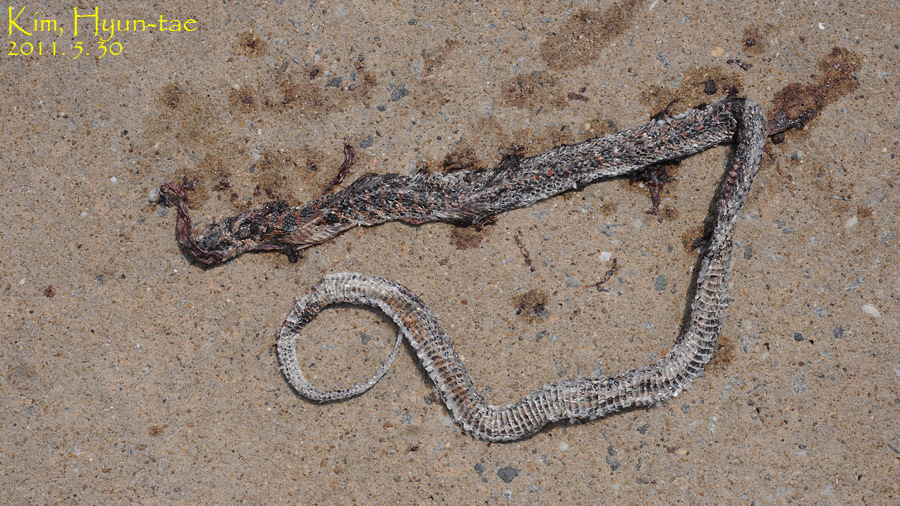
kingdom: Animalia
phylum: Chordata
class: Squamata
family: Colubridae
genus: Lycodon
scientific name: Lycodon rufozonatus
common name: Red-banded snake
